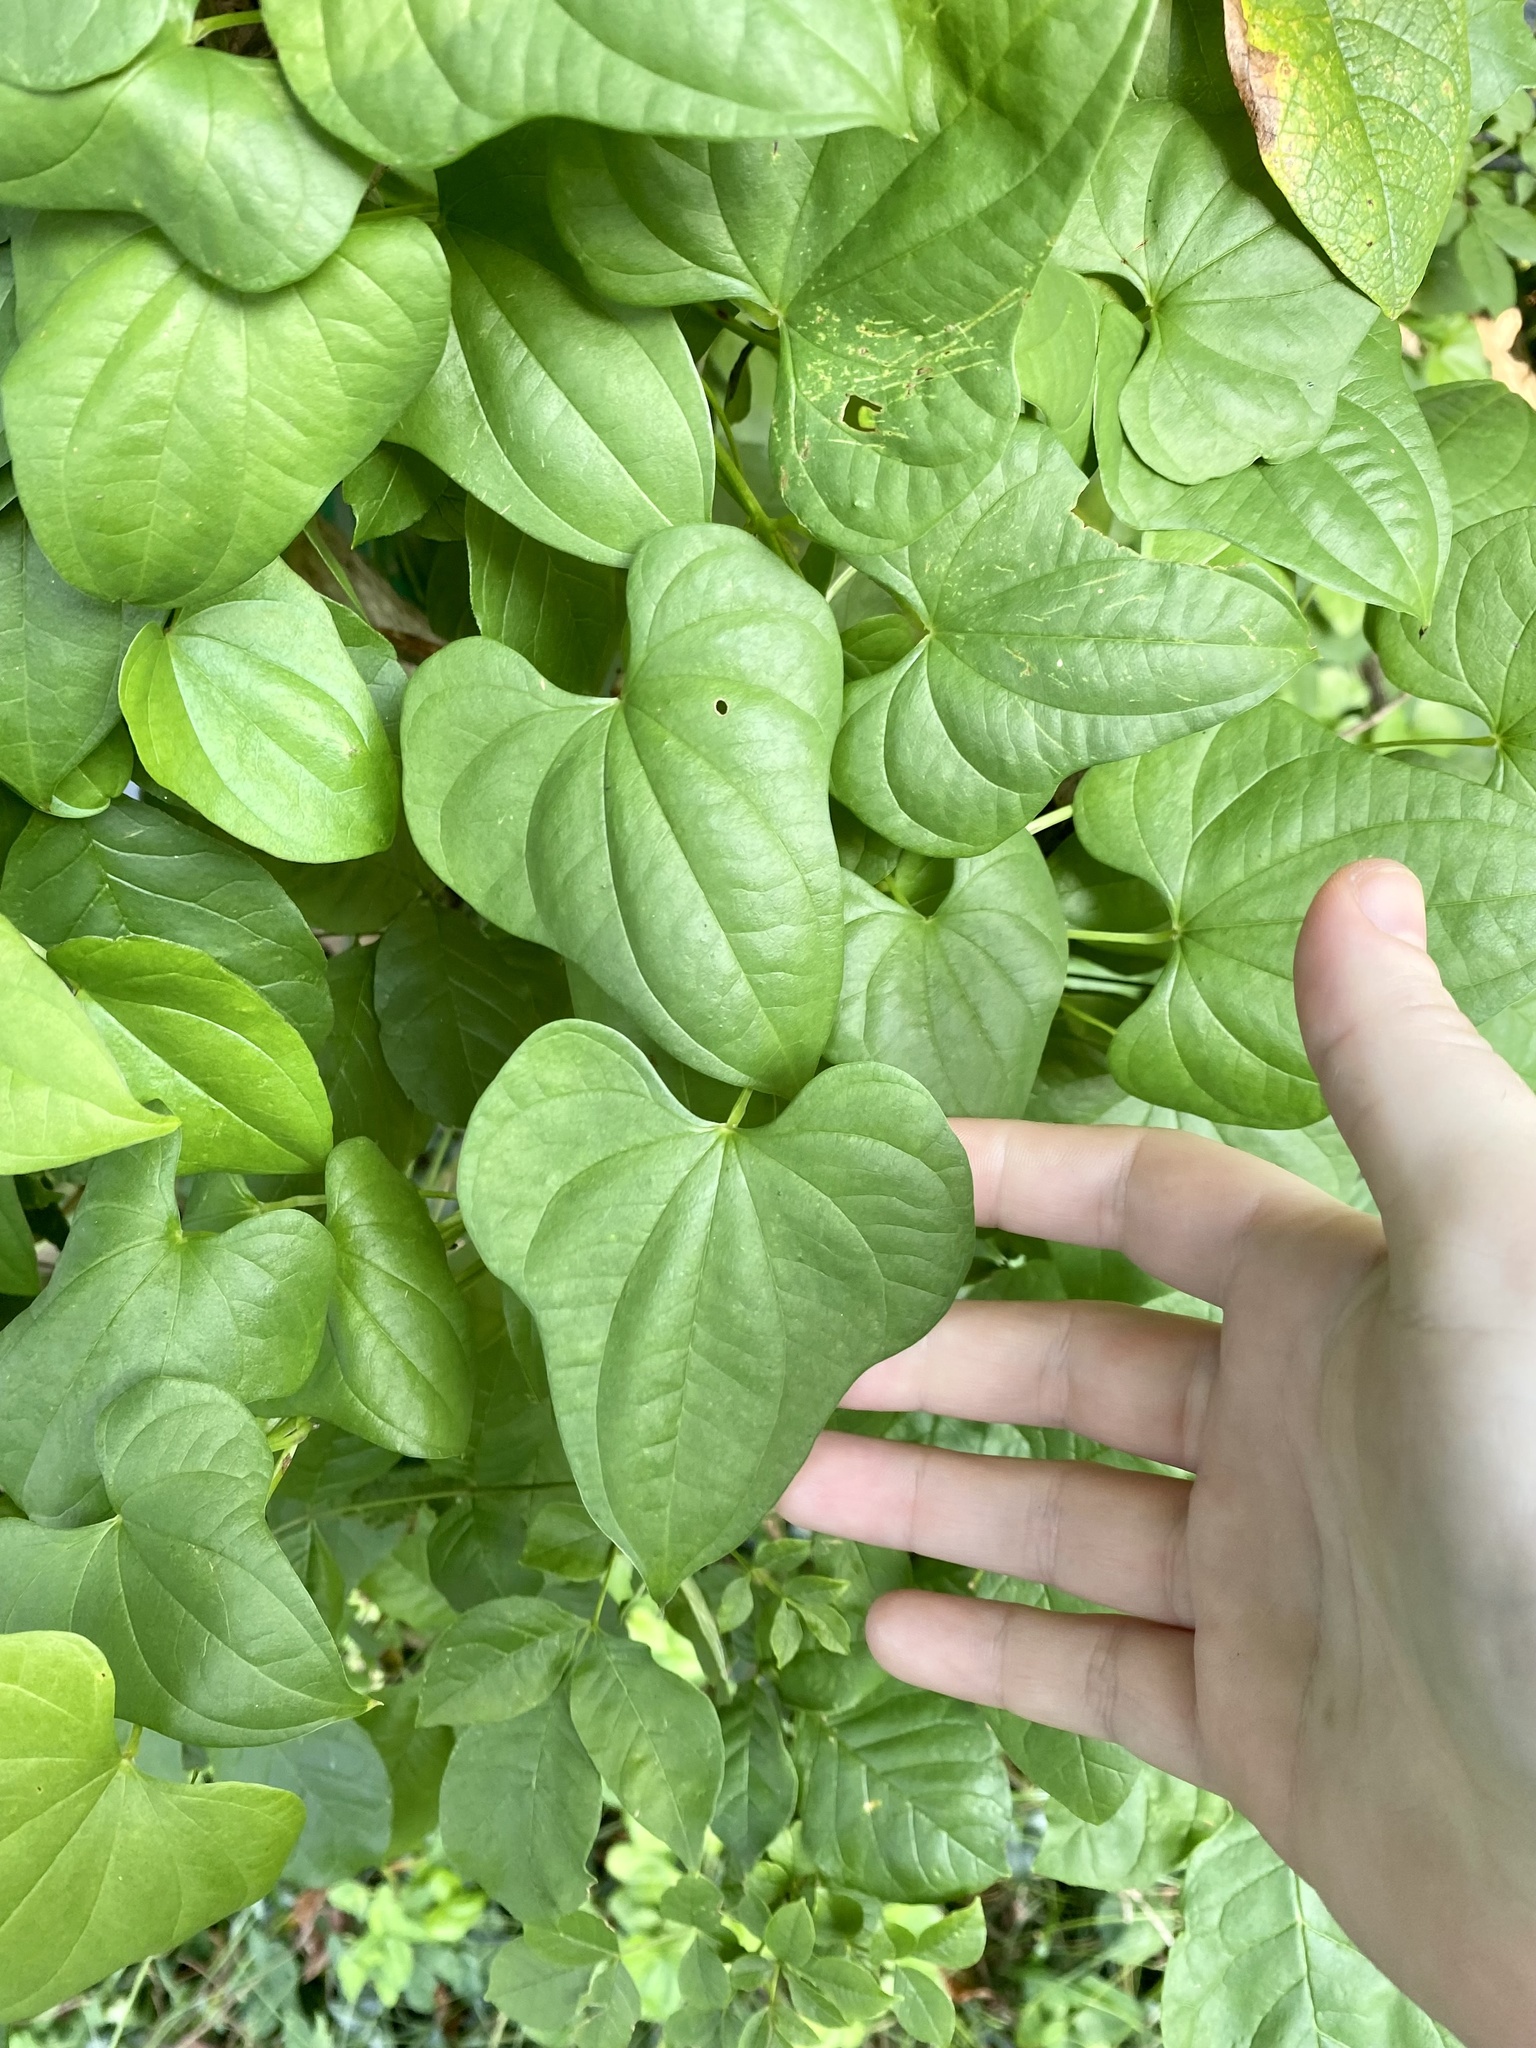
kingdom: Plantae
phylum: Tracheophyta
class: Liliopsida
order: Dioscoreales
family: Dioscoreaceae
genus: Dioscorea
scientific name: Dioscorea polystachya
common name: Chinese yam
